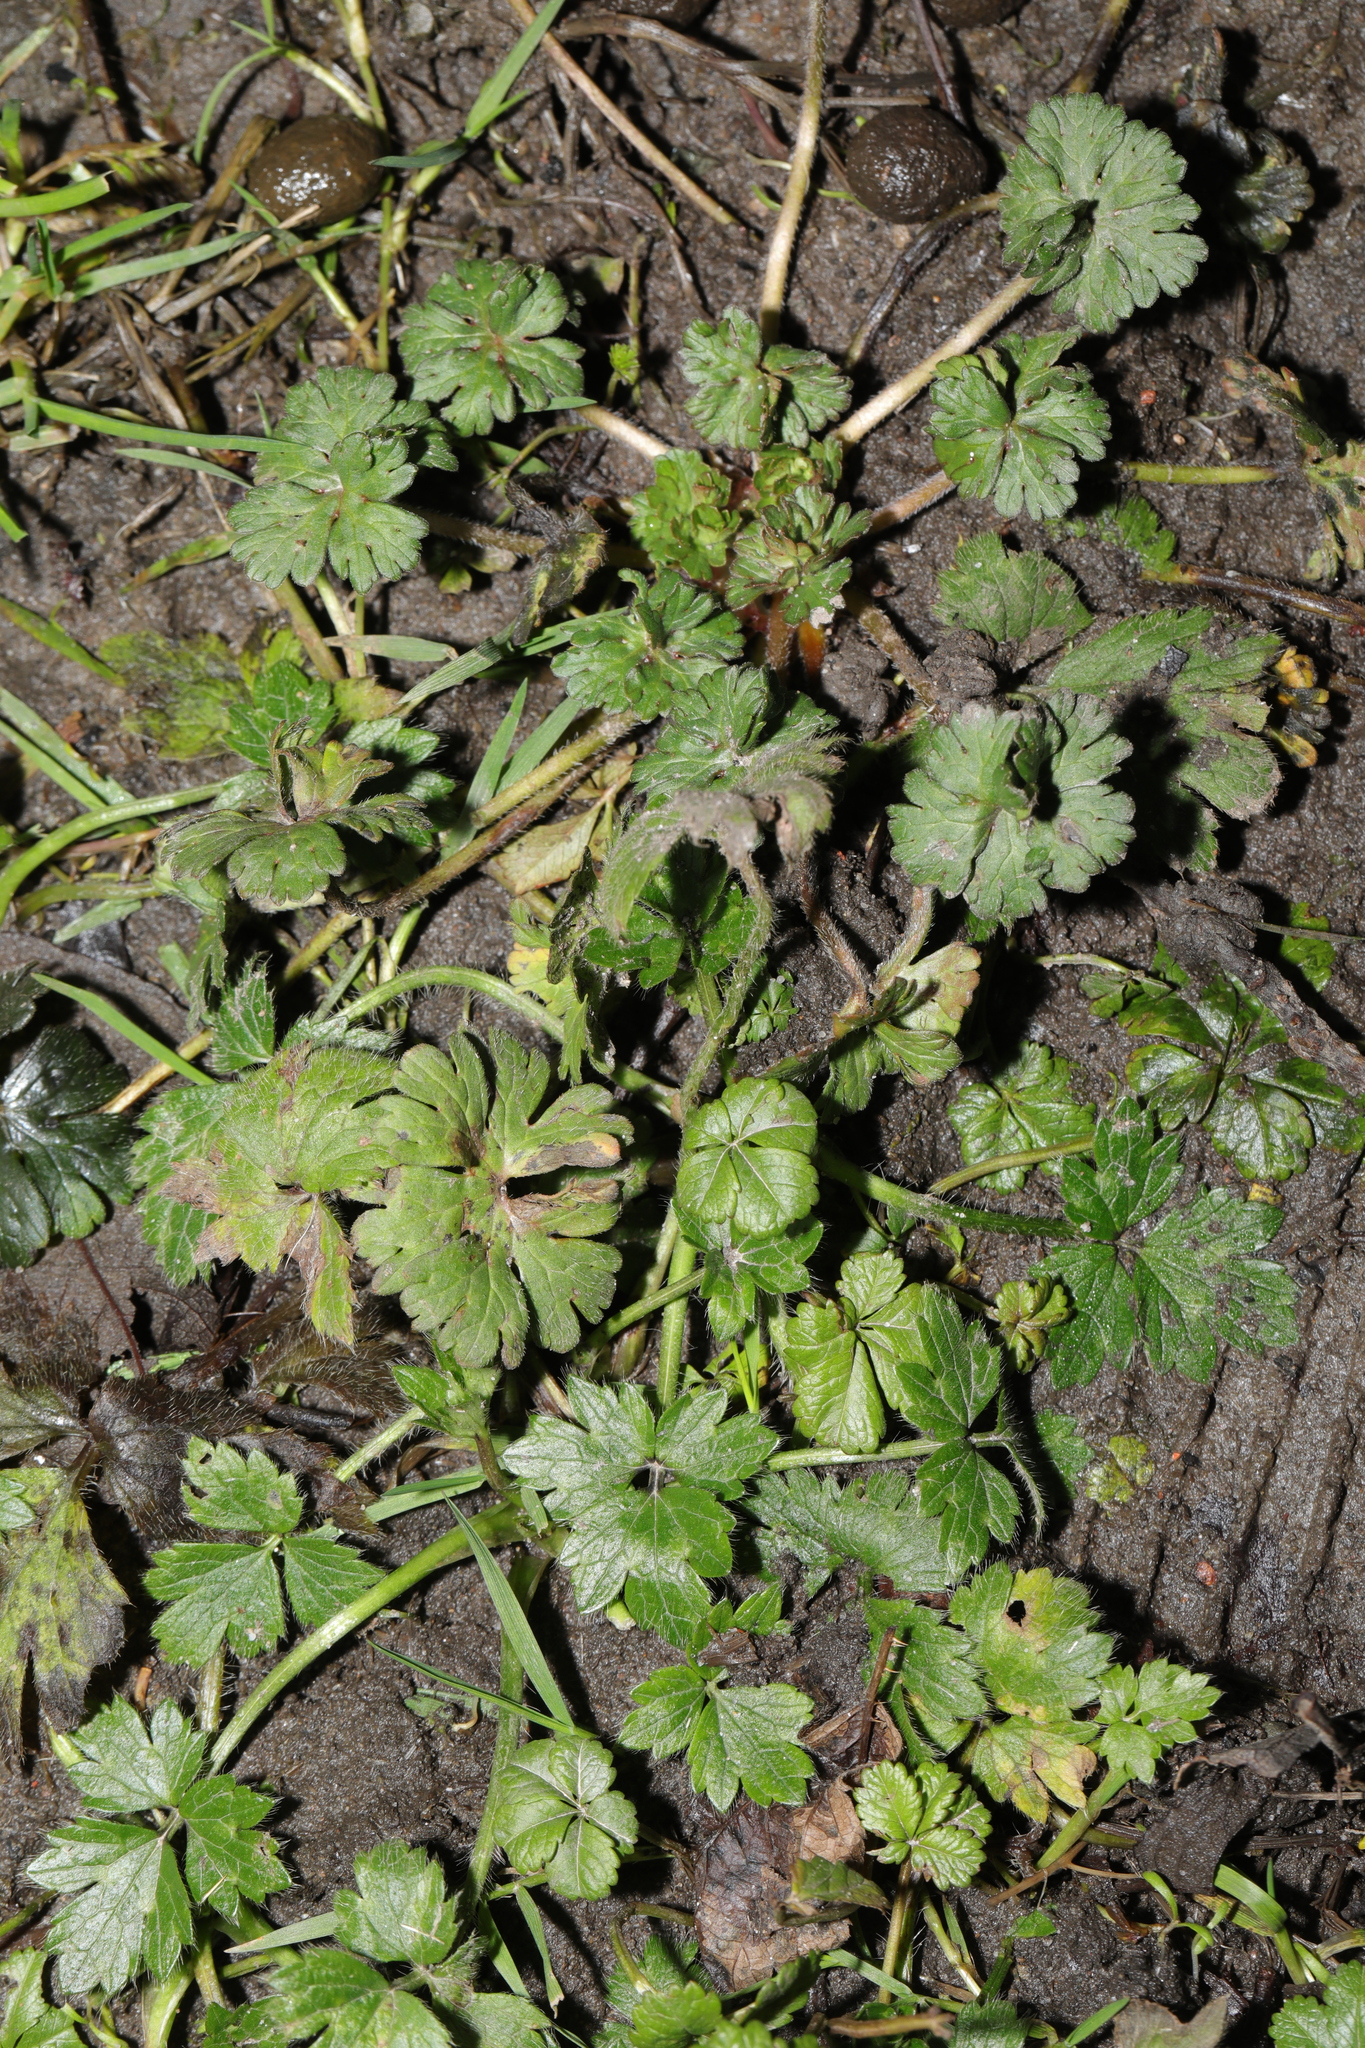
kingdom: Plantae
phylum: Tracheophyta
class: Magnoliopsida
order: Ranunculales
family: Ranunculaceae
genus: Ranunculus
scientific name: Ranunculus repens
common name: Creeping buttercup
